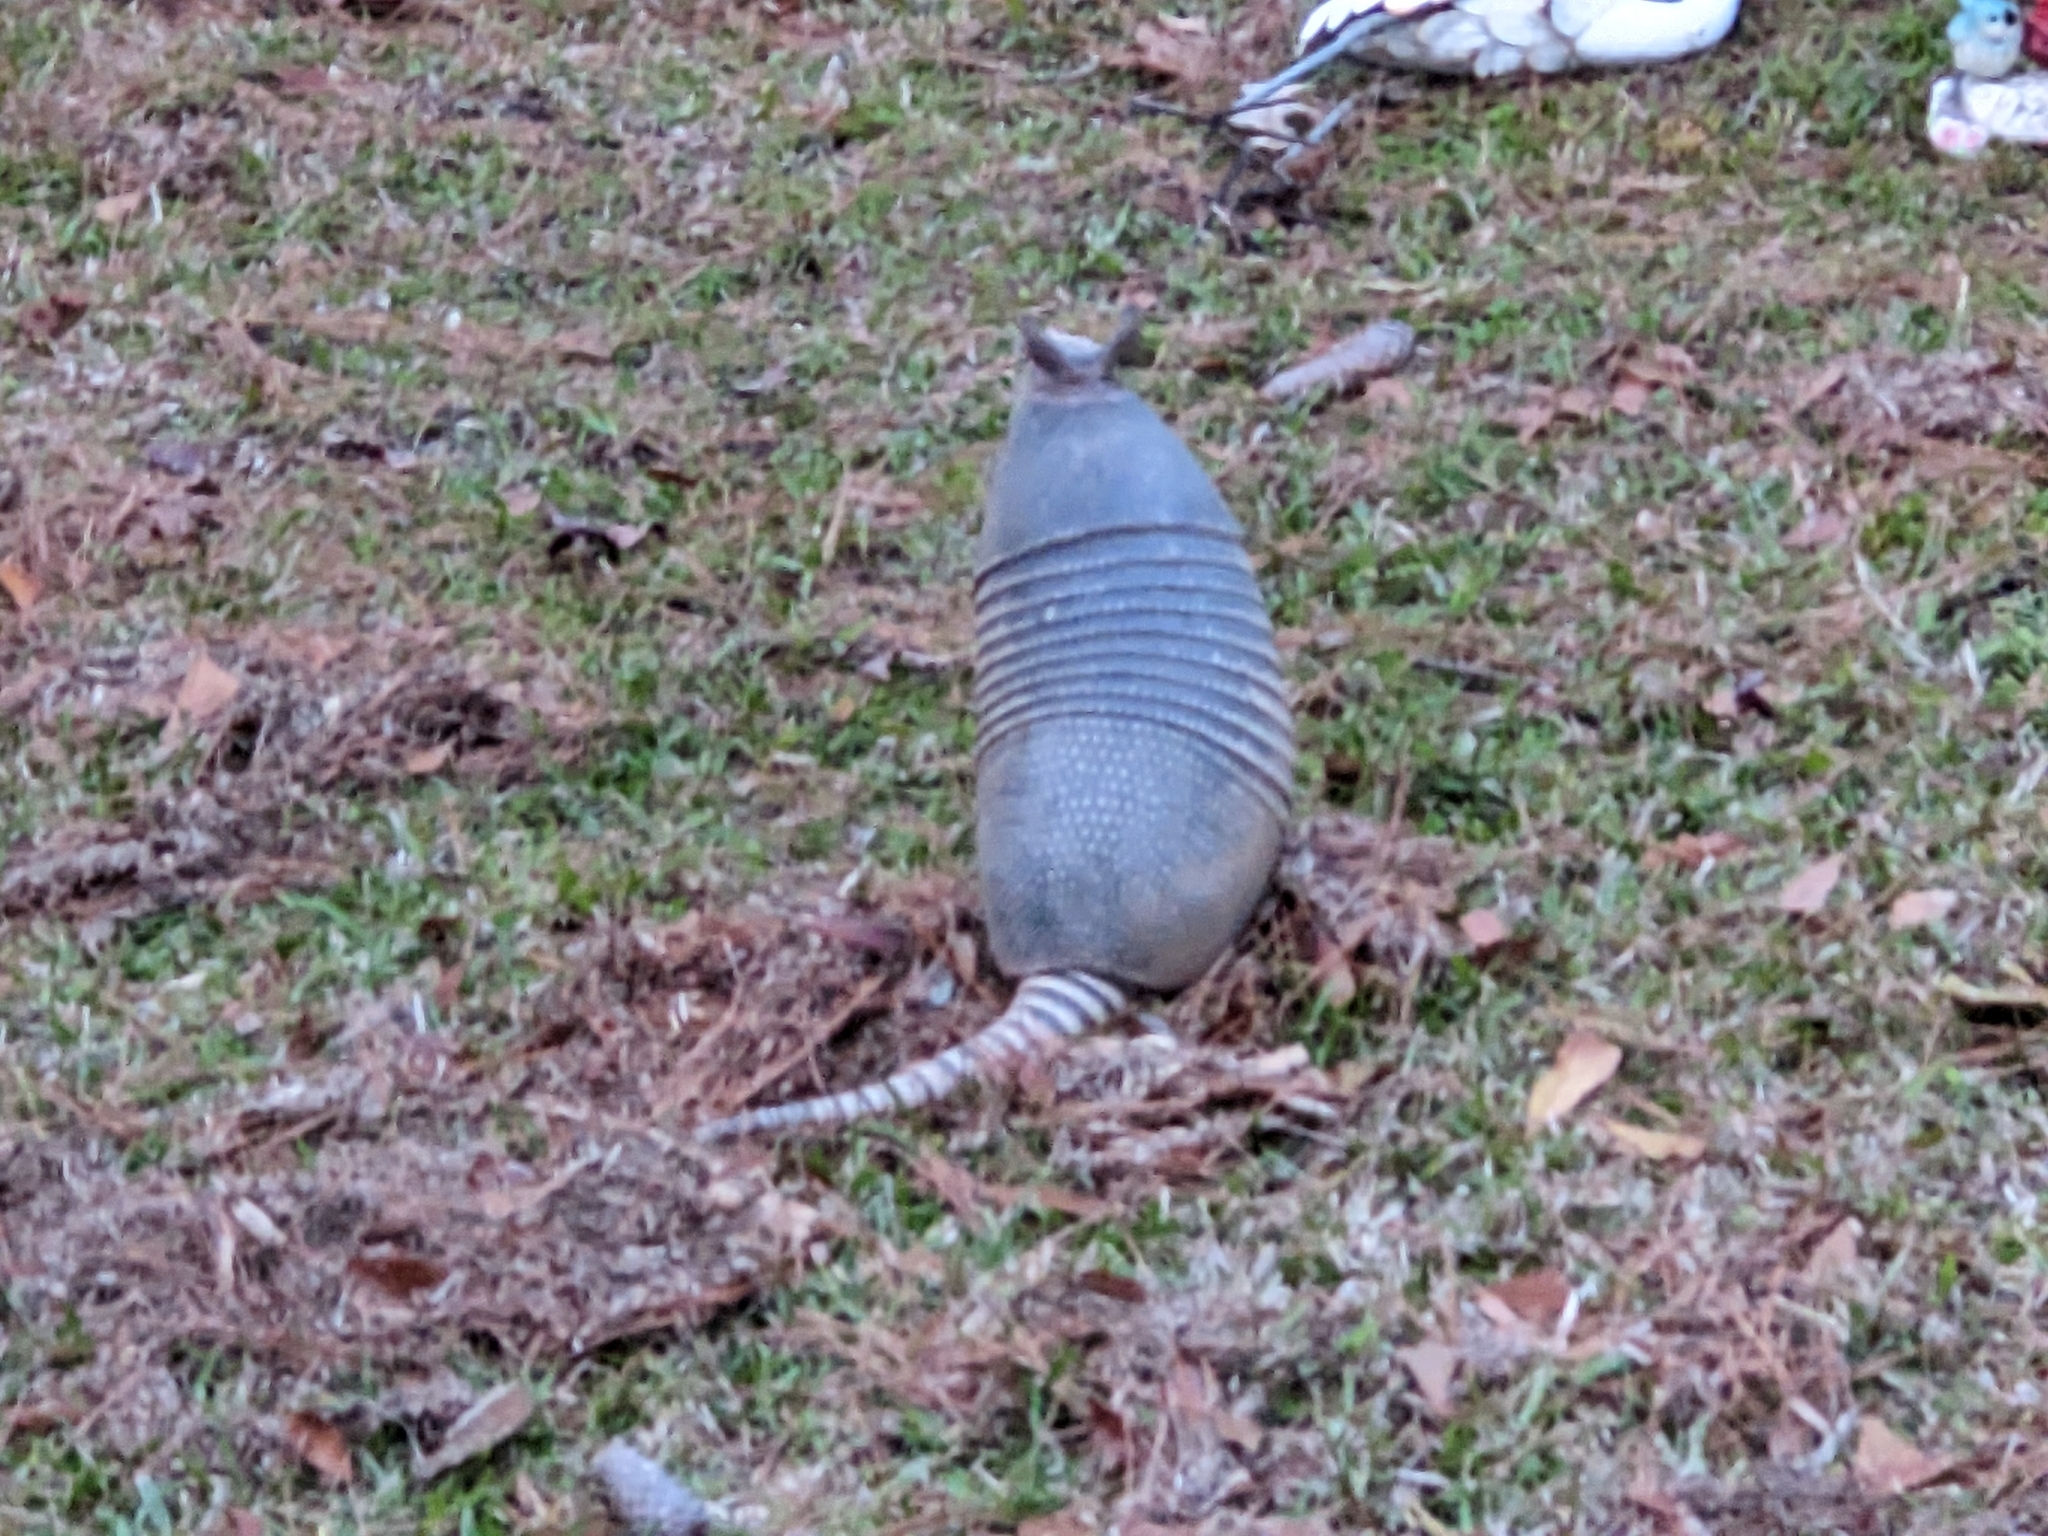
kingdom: Animalia
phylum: Chordata
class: Mammalia
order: Cingulata
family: Dasypodidae
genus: Dasypus
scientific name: Dasypus novemcinctus
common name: Nine-banded armadillo
